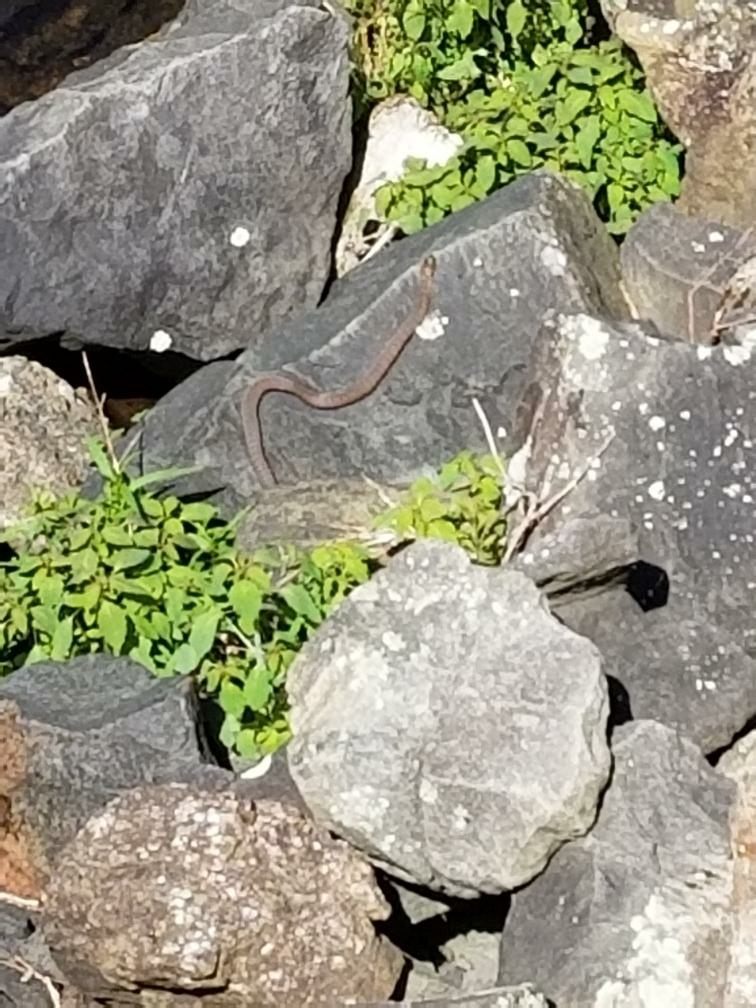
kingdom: Animalia
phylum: Chordata
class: Squamata
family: Colubridae
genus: Nerodia
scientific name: Nerodia sipedon
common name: Northern water snake
